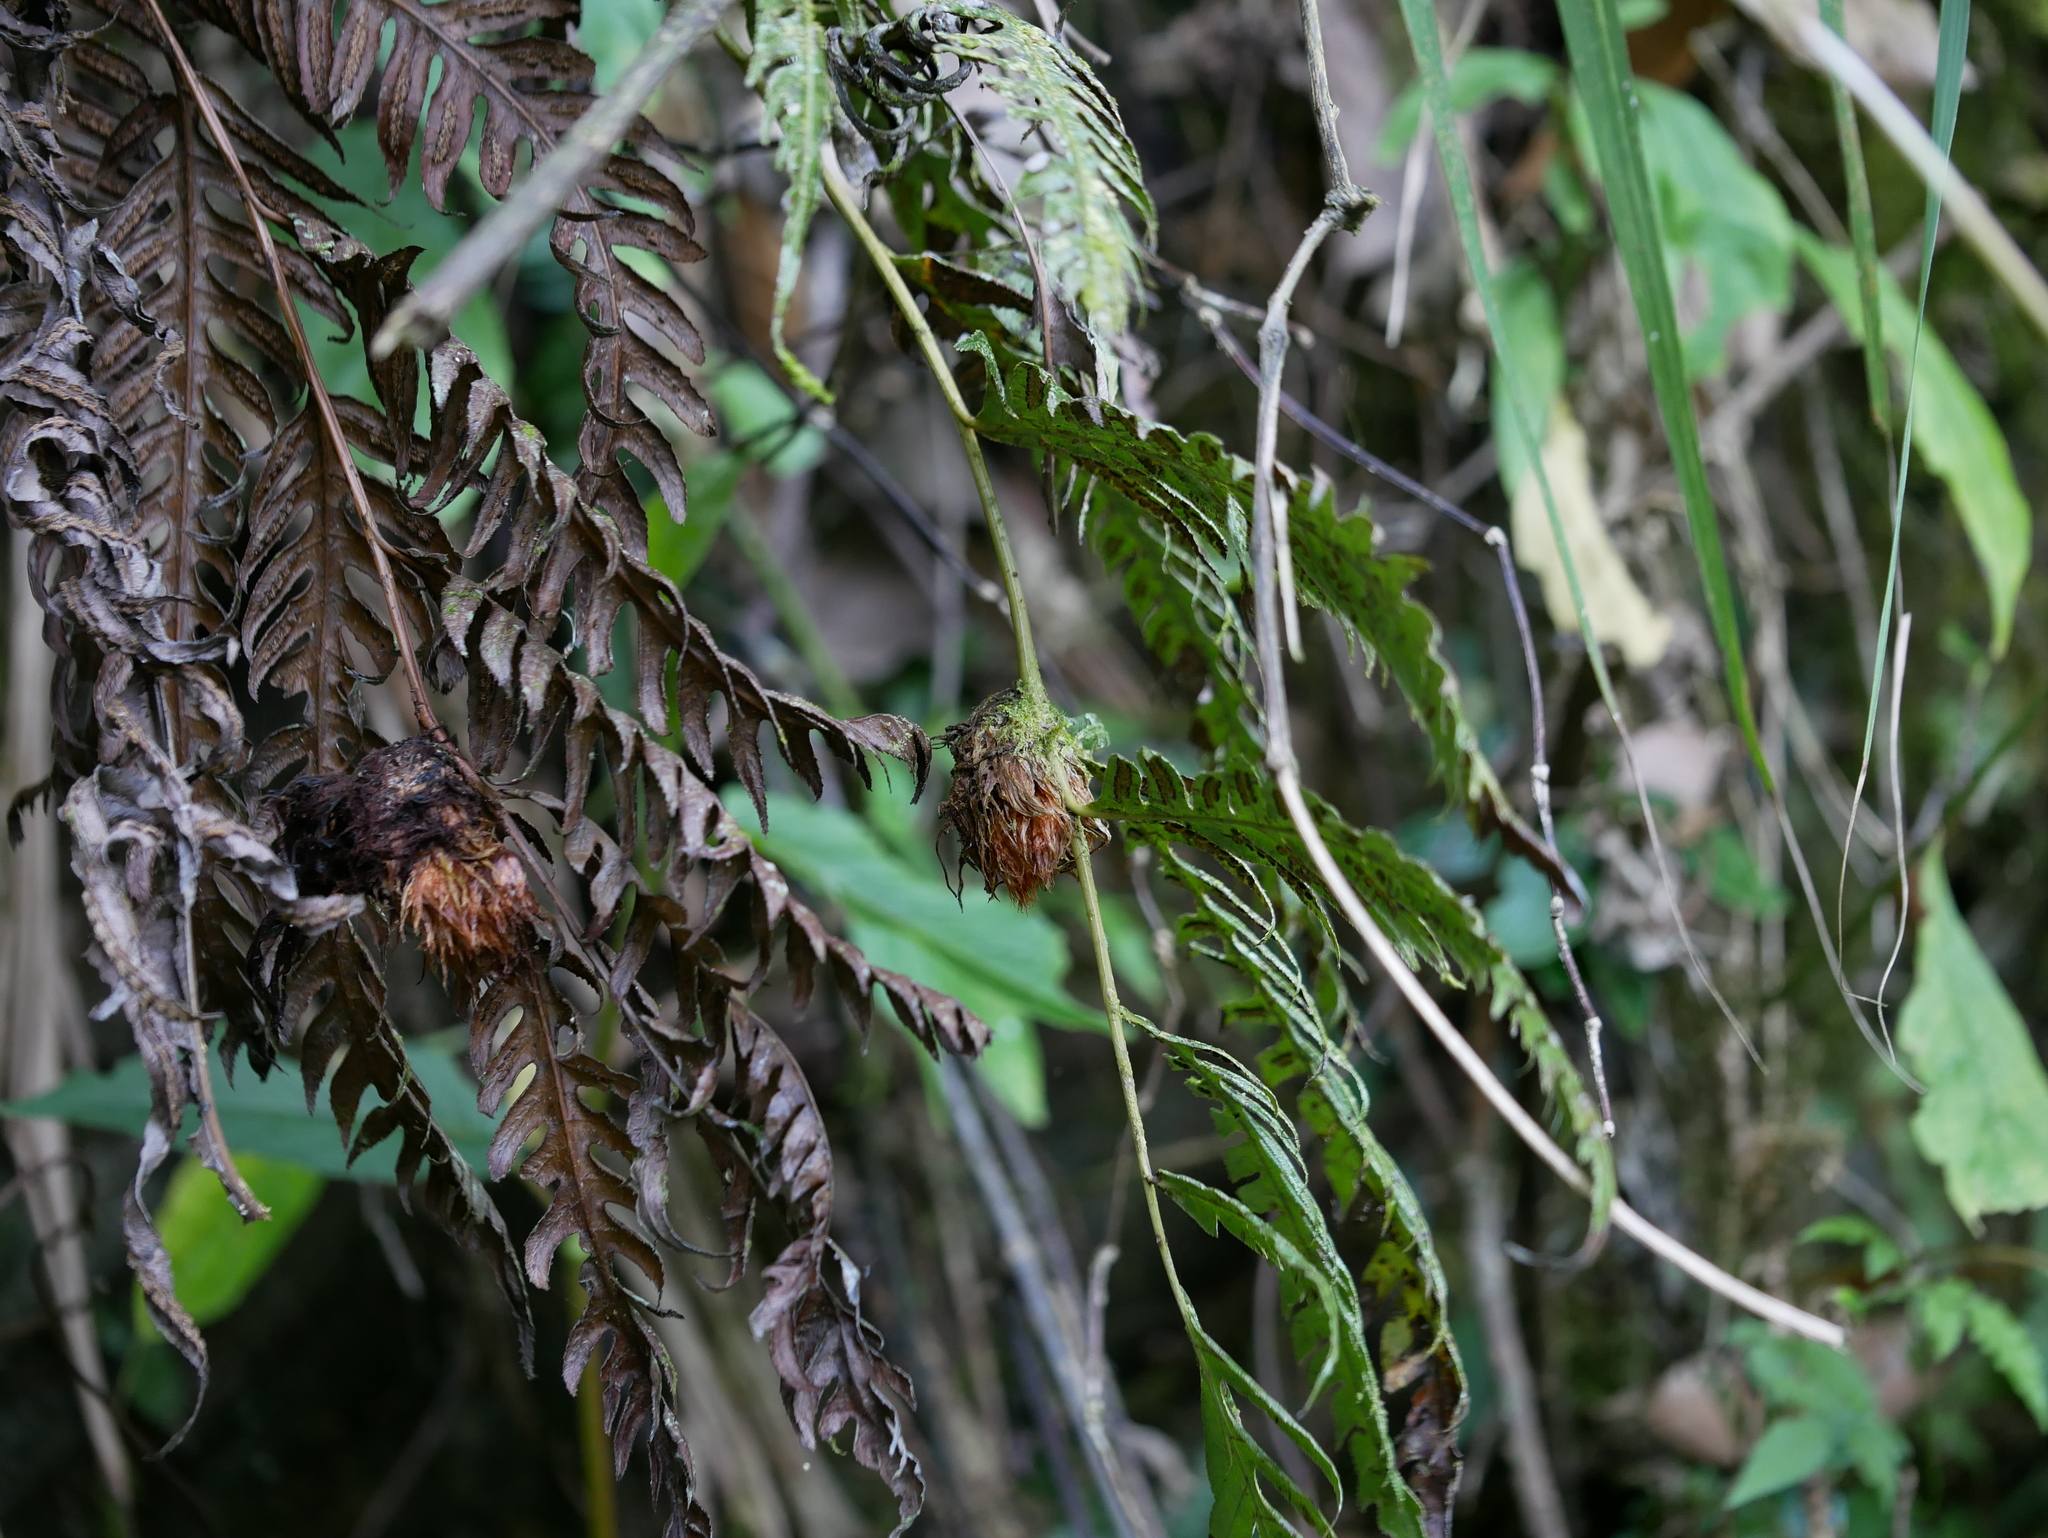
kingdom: Plantae
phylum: Tracheophyta
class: Polypodiopsida
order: Polypodiales
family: Blechnaceae
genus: Woodwardia
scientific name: Woodwardia unigemmata
